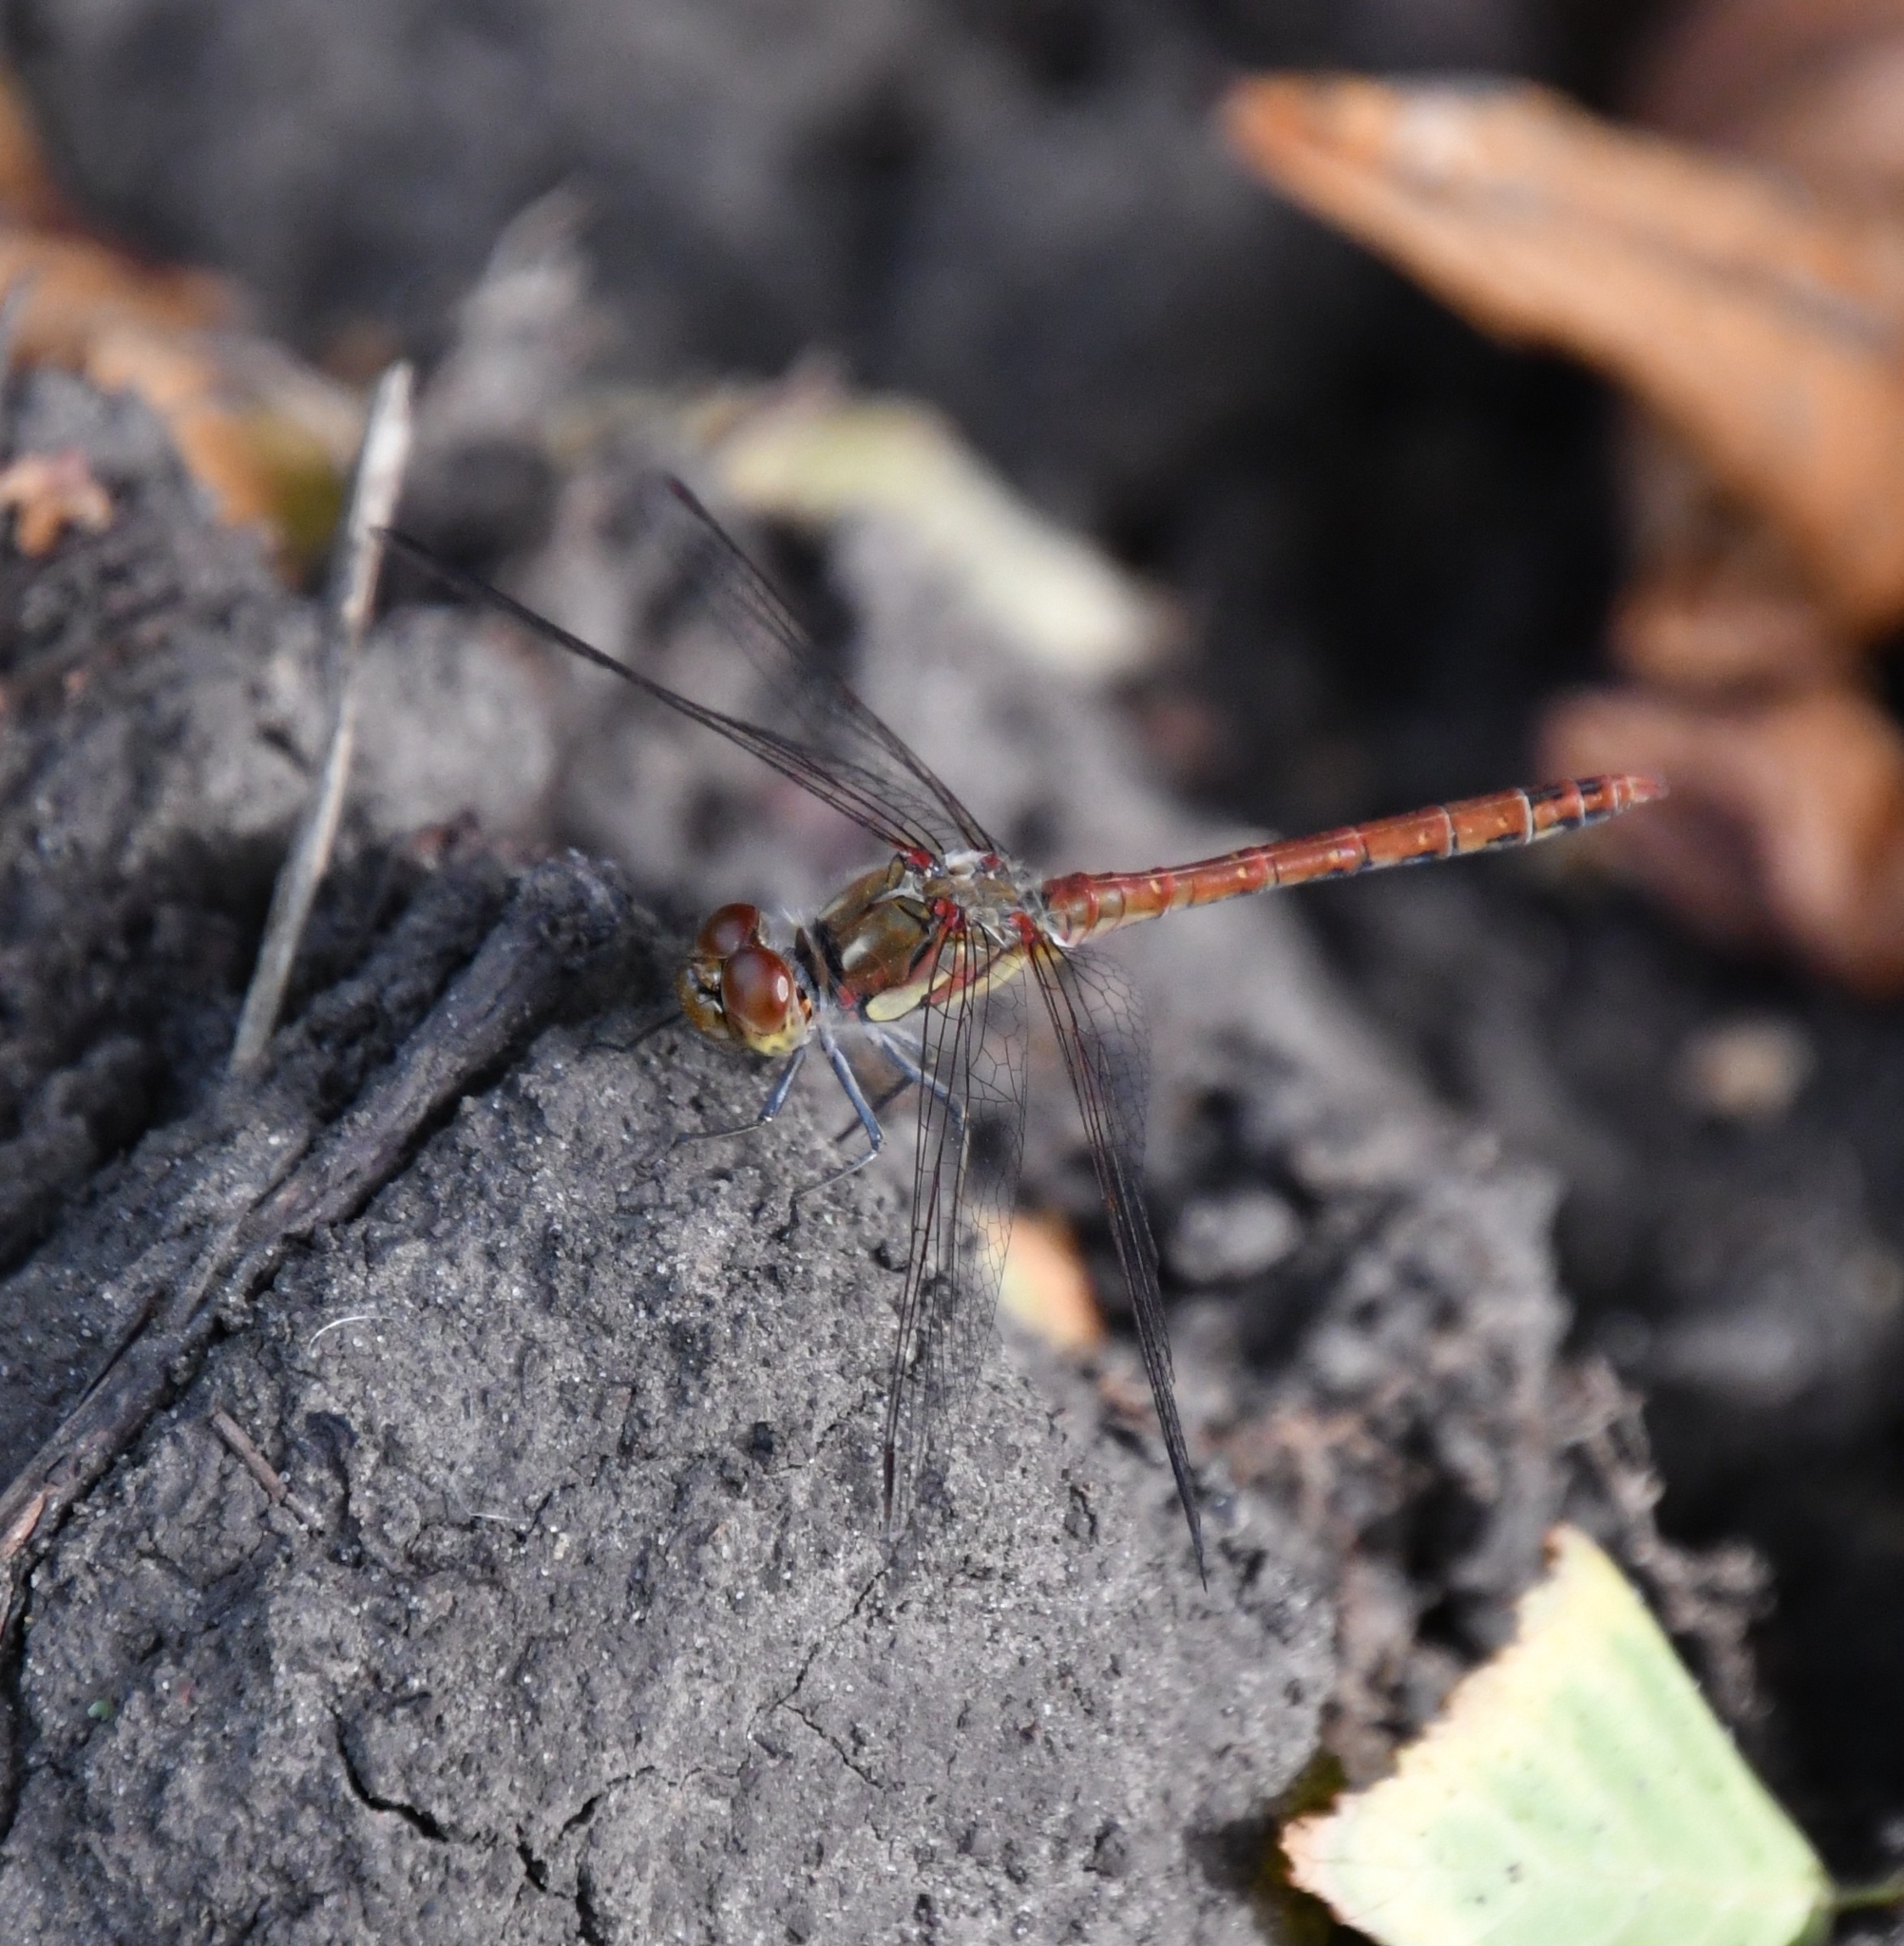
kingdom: Animalia
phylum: Arthropoda
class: Insecta
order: Odonata
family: Libellulidae
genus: Sympetrum
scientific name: Sympetrum striolatum
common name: Common darter
